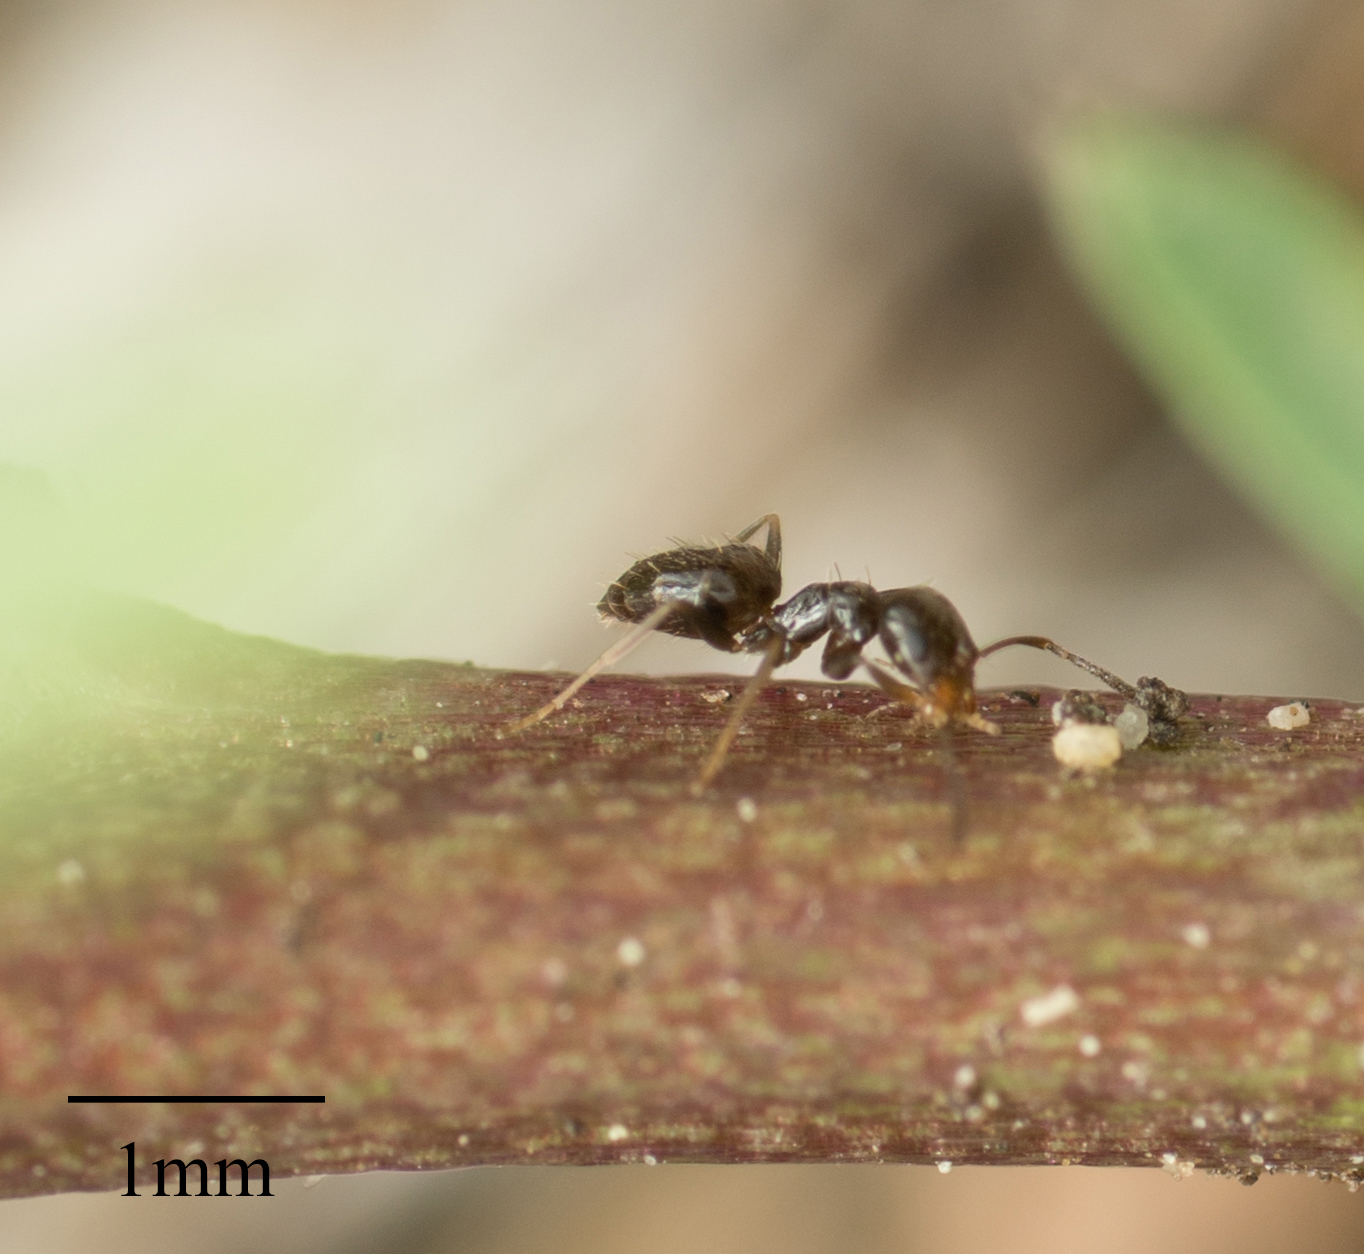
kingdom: Animalia
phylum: Arthropoda
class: Insecta
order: Hymenoptera
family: Formicidae
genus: Brachymyrmex
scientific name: Brachymyrmex patagonicus
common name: Dark rover ant
